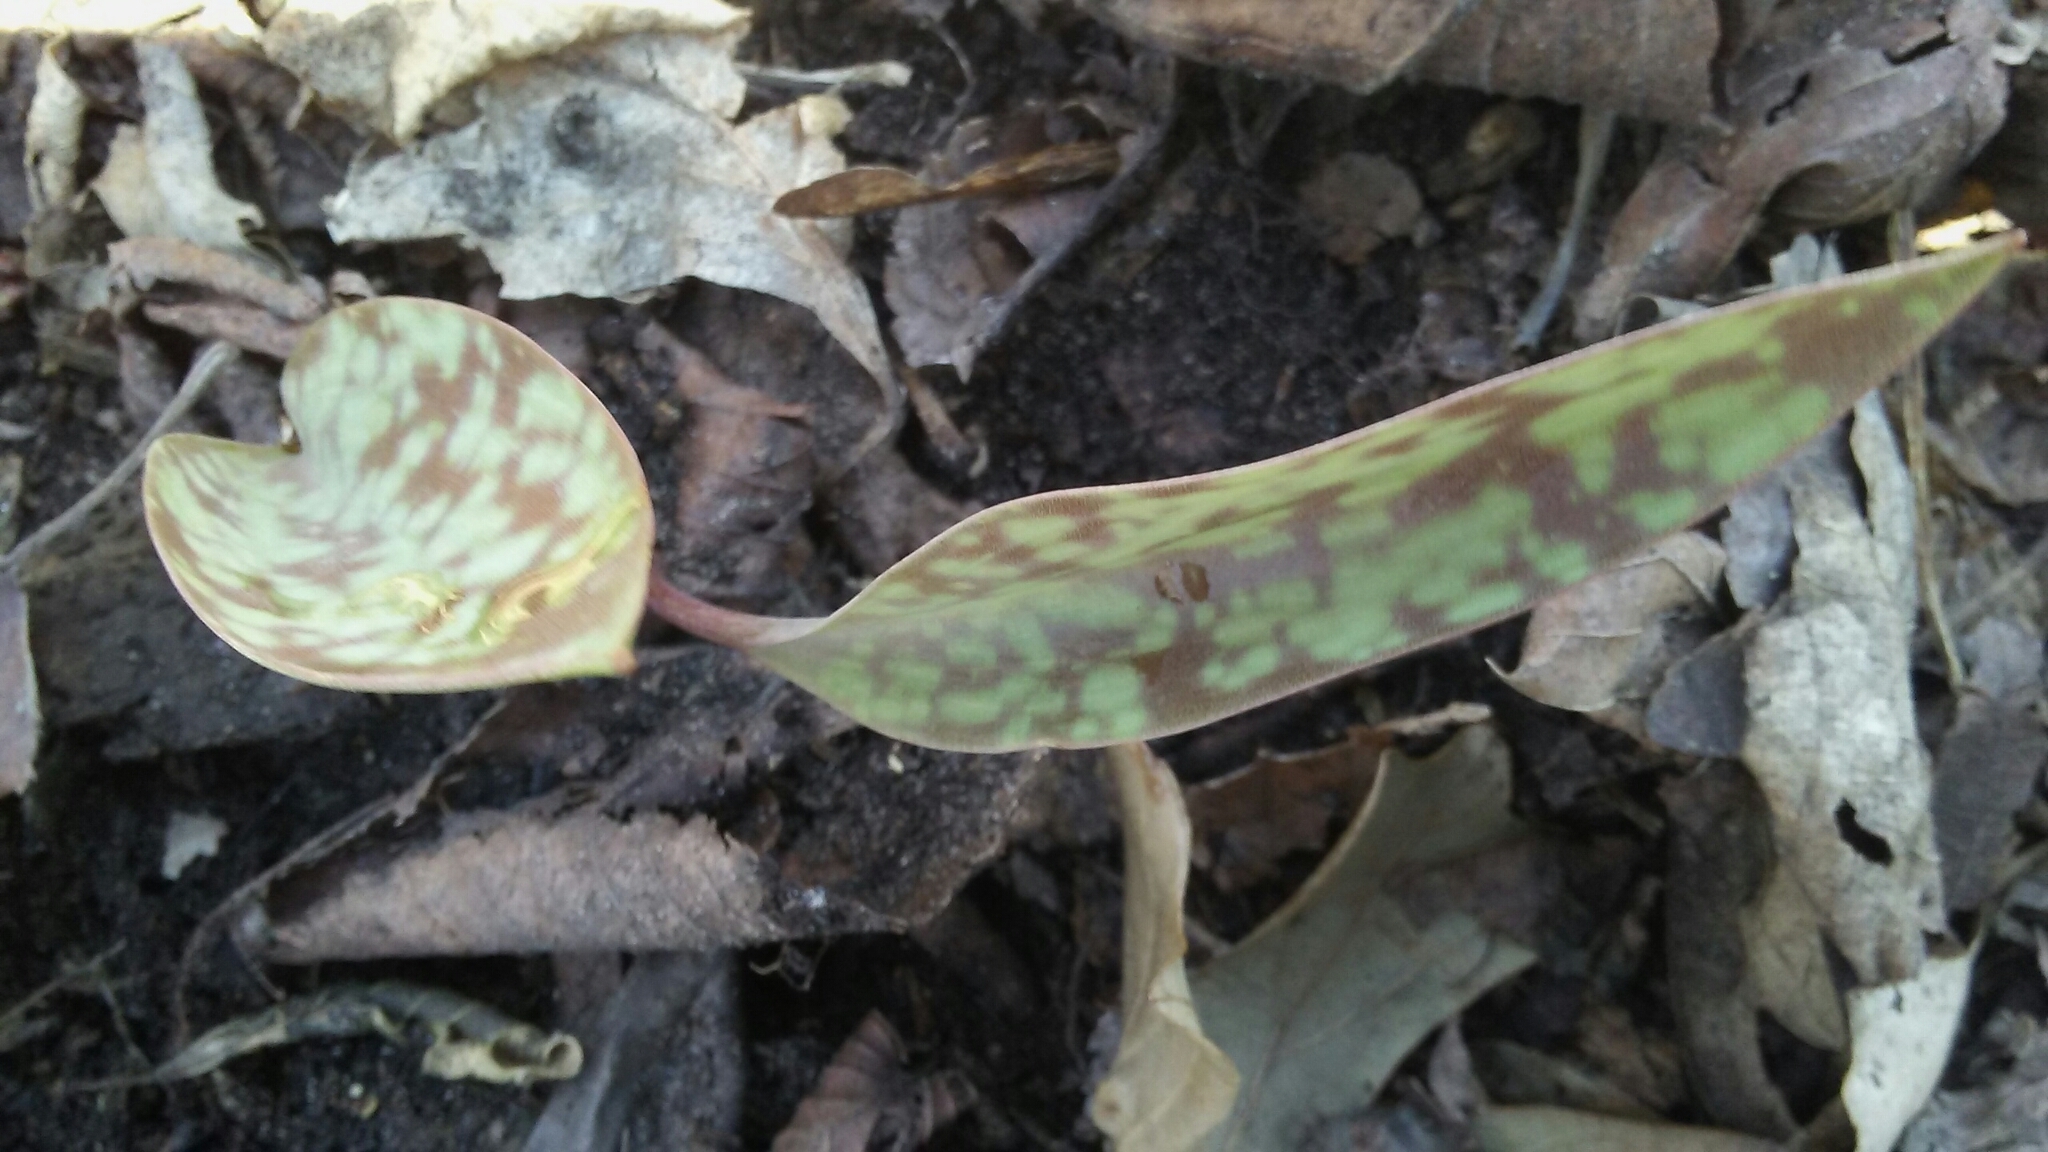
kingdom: Plantae
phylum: Tracheophyta
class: Liliopsida
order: Liliales
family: Liliaceae
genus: Erythronium
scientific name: Erythronium albidum
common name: White trout-lily
